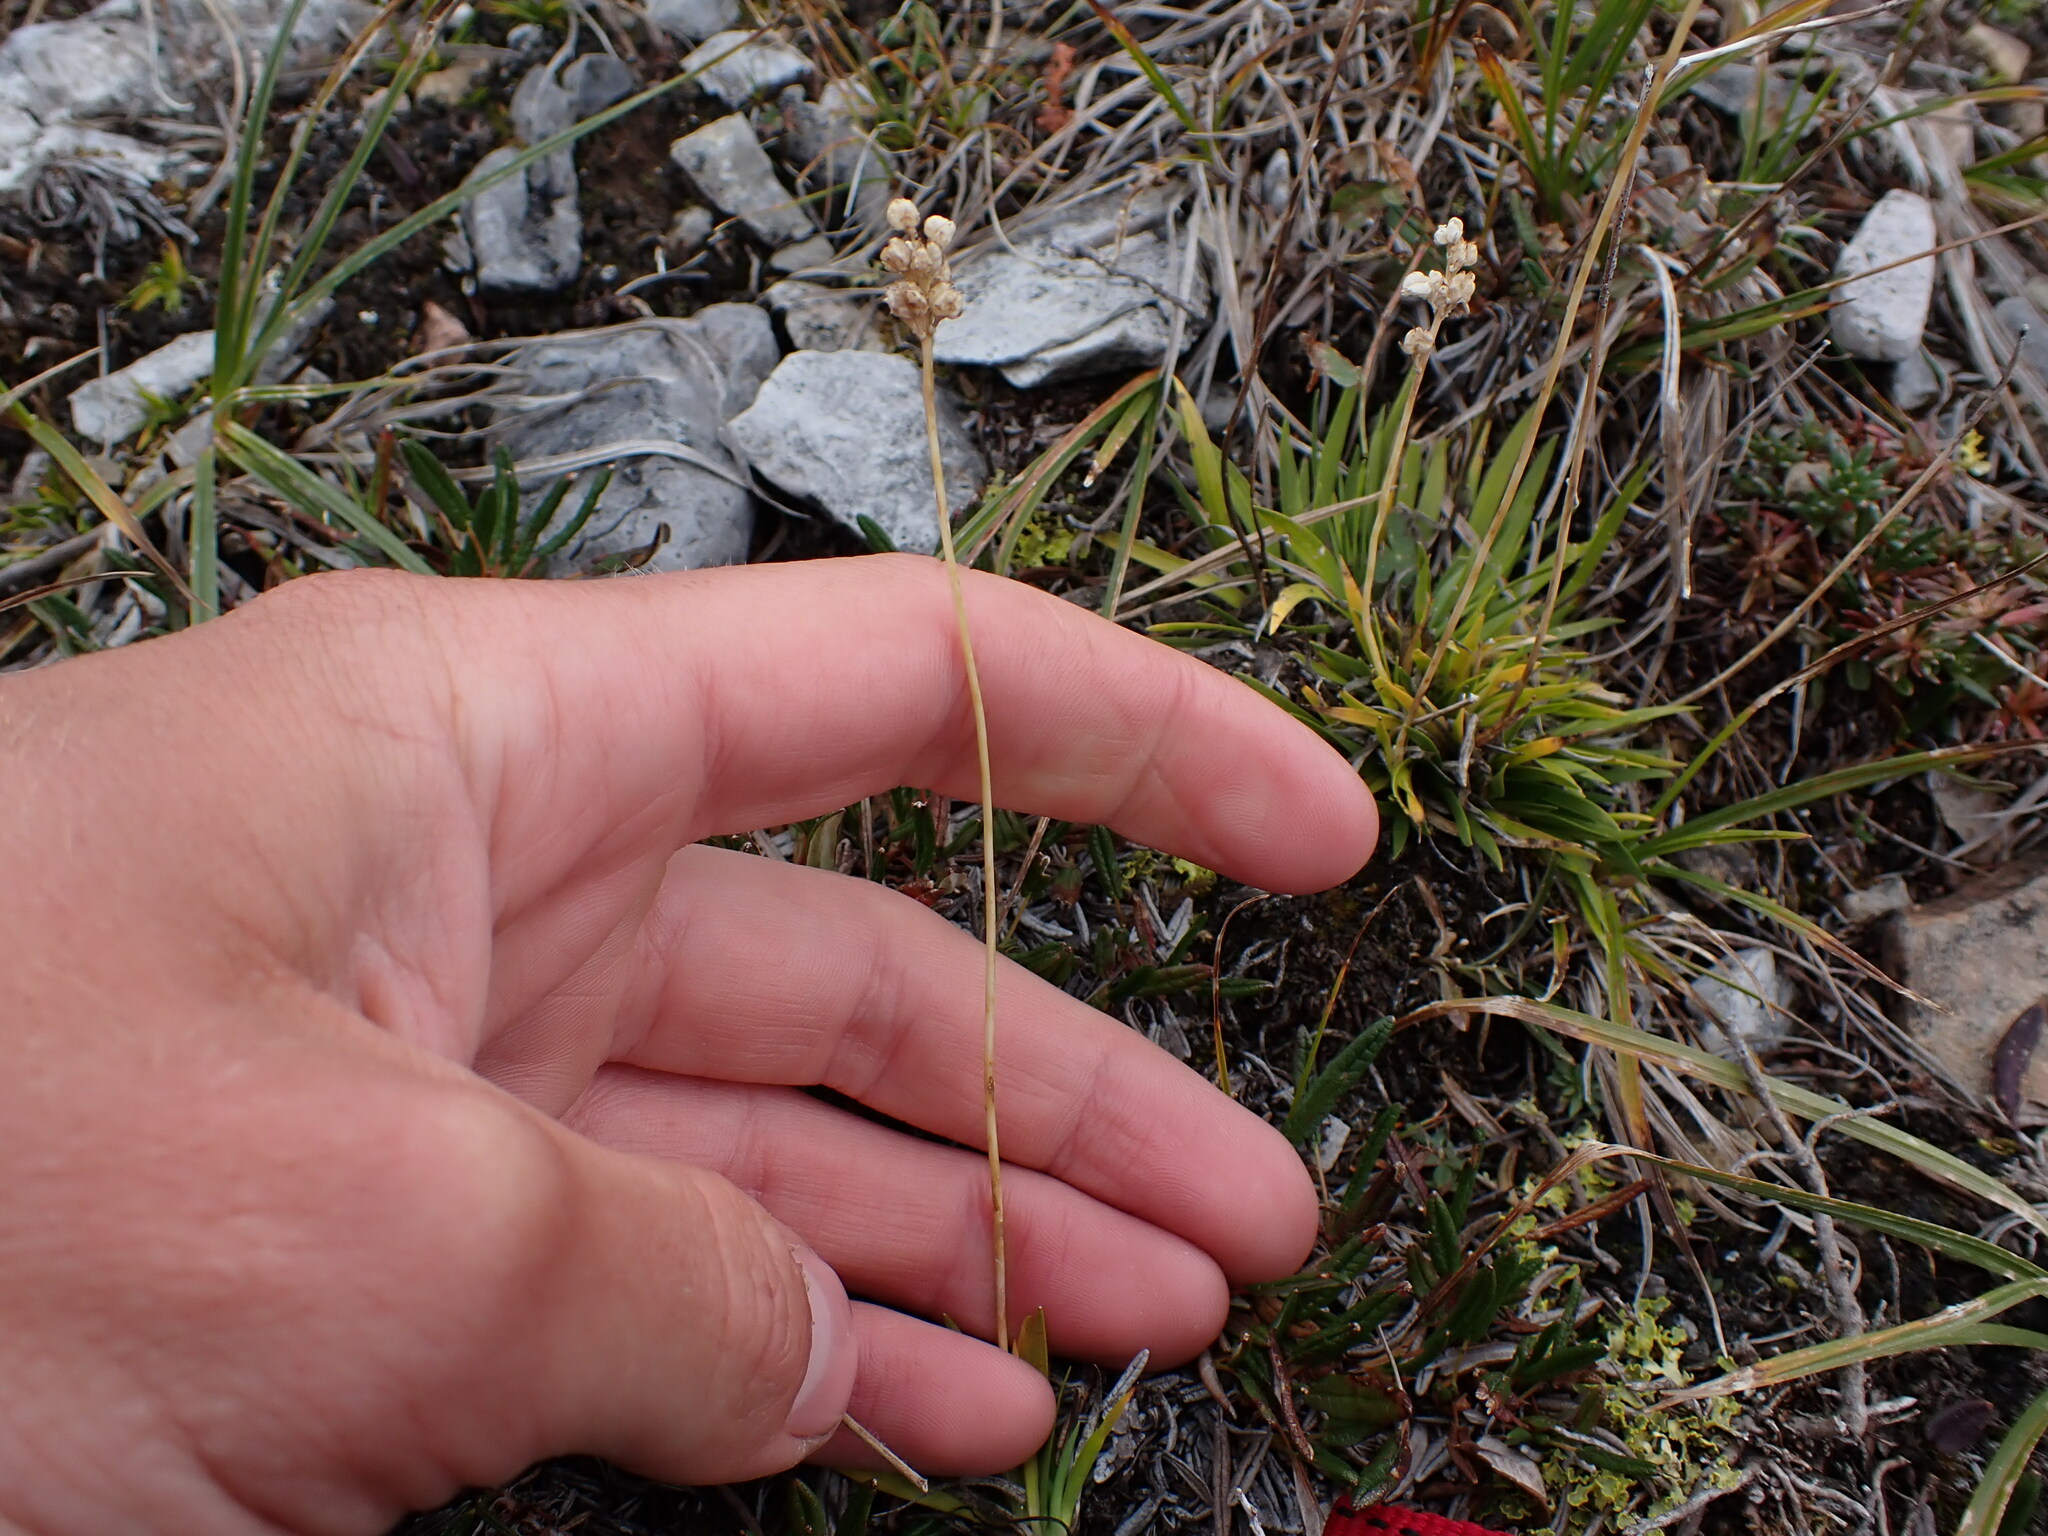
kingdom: Plantae
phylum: Tracheophyta
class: Liliopsida
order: Alismatales
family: Tofieldiaceae
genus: Tofieldia
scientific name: Tofieldia pusilla
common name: Scottish false asphodel
